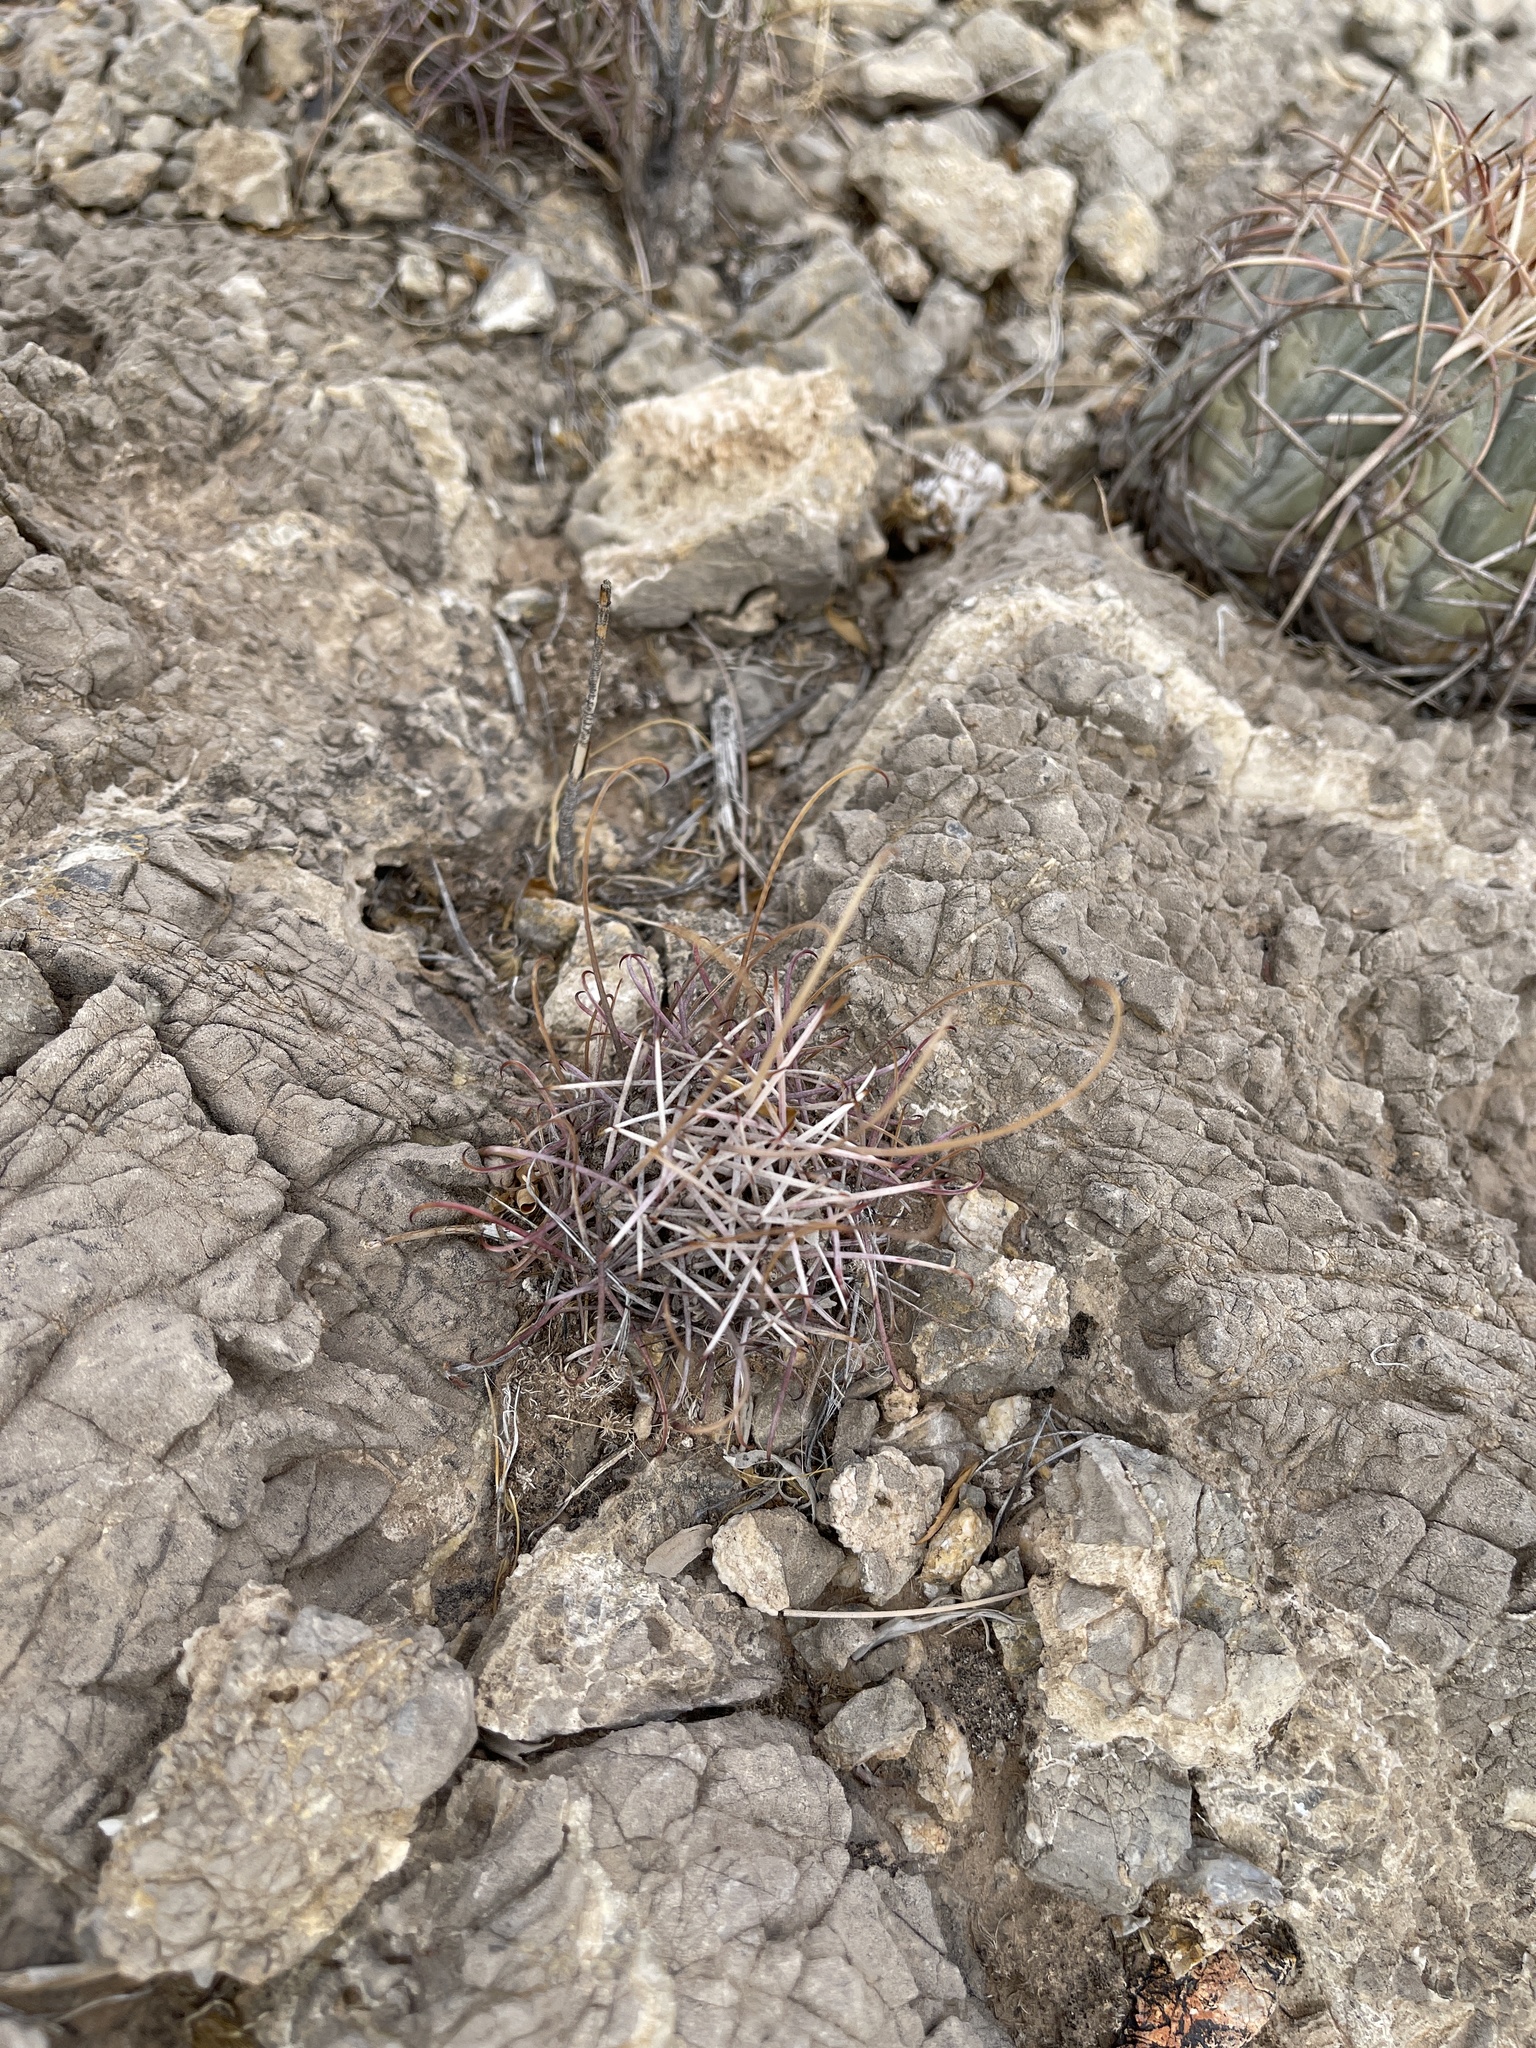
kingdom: Plantae
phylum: Tracheophyta
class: Magnoliopsida
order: Caryophyllales
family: Cactaceae
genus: Ferocactus
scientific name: Ferocactus uncinatus
